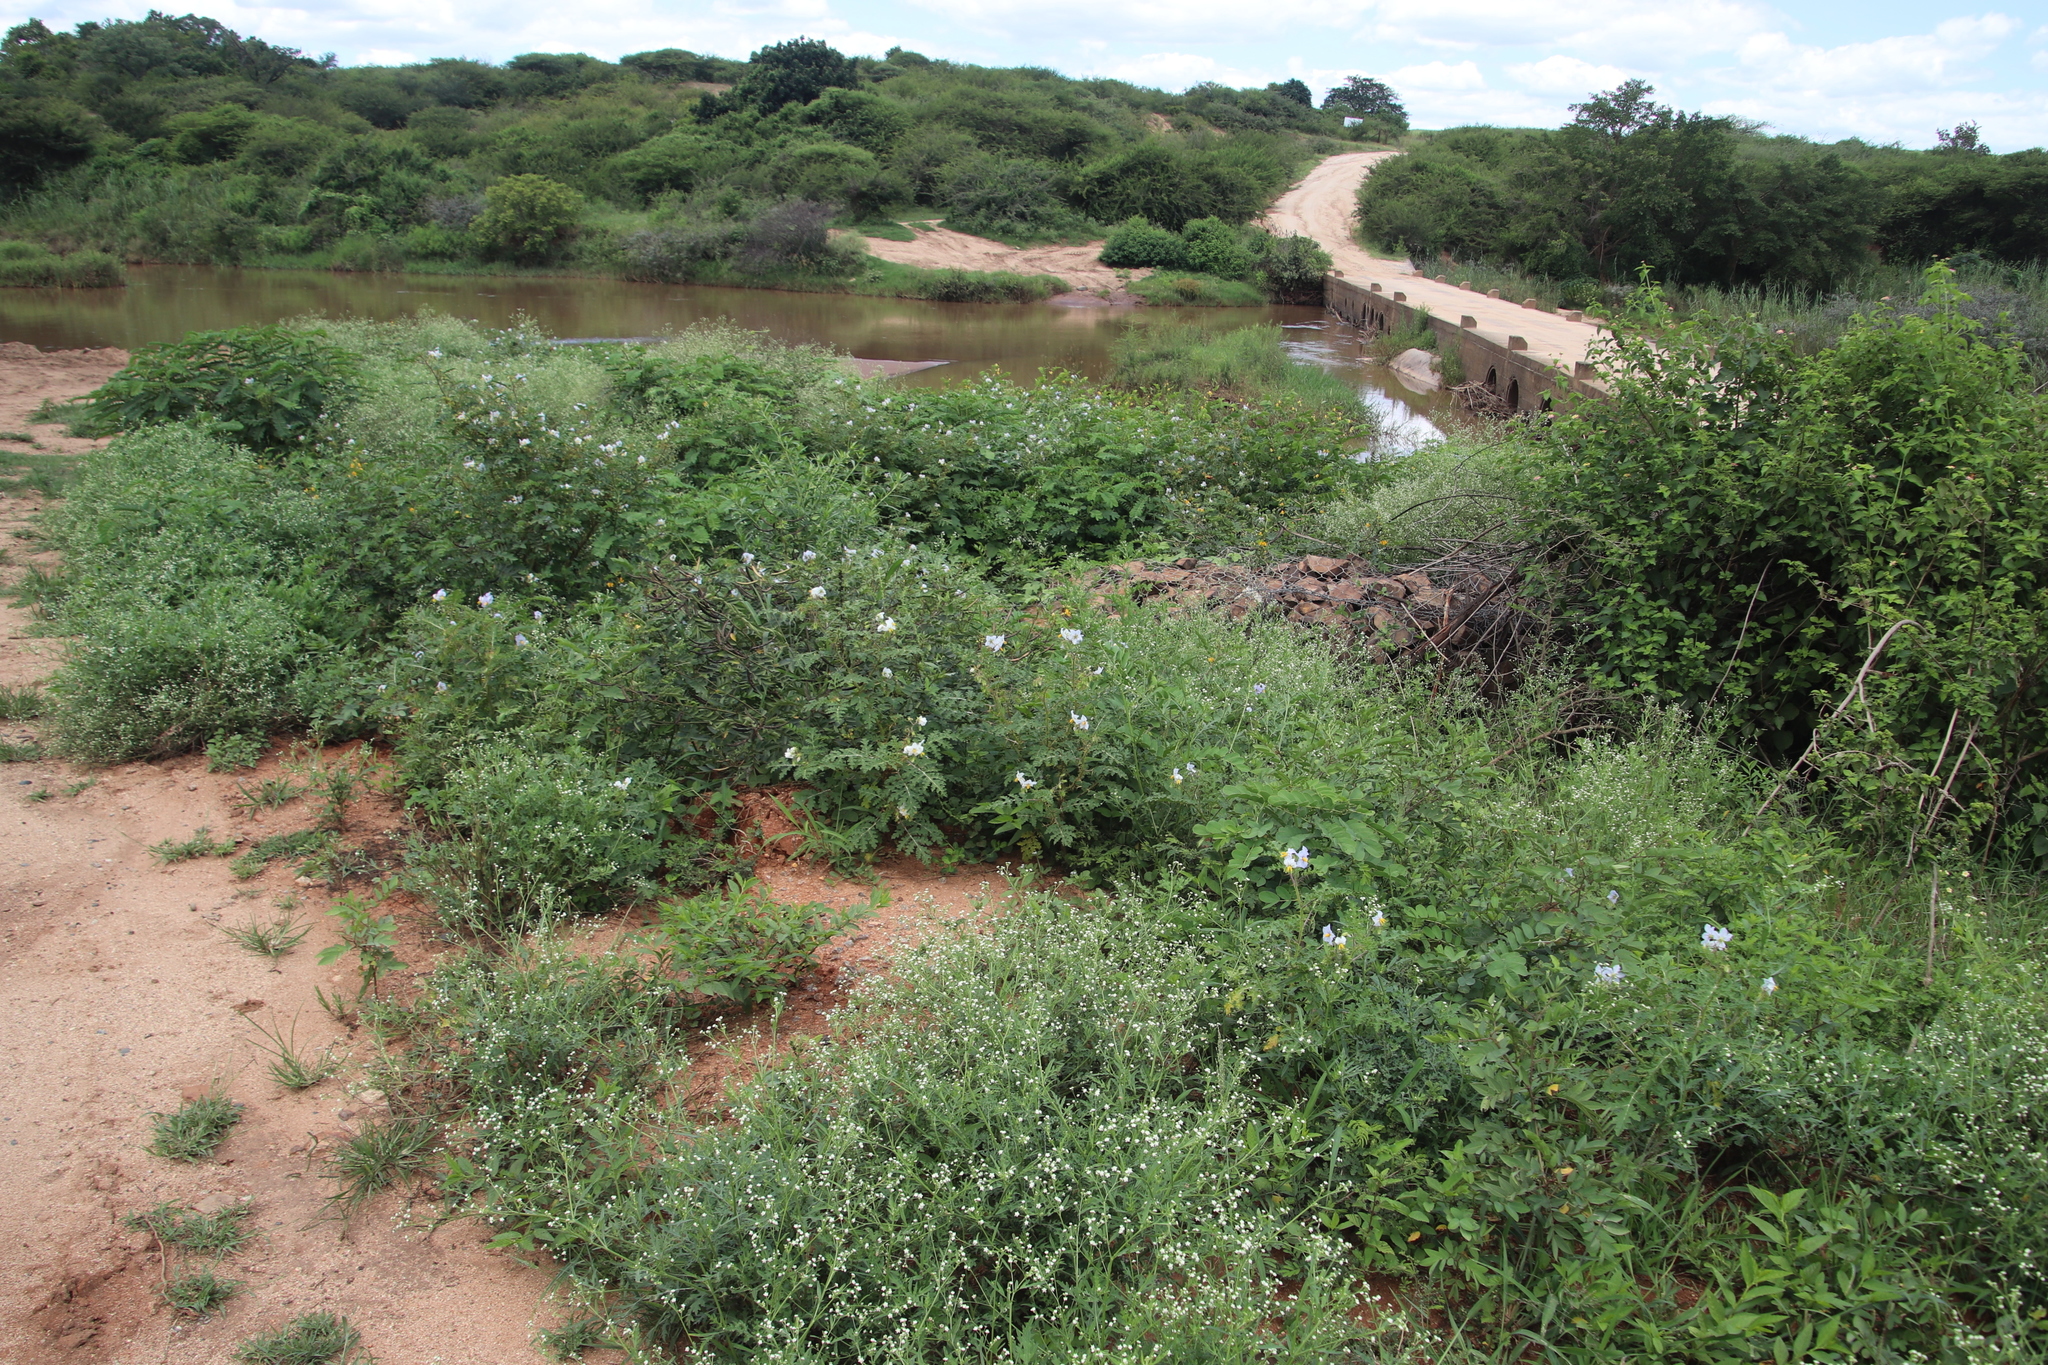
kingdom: Plantae
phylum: Tracheophyta
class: Magnoliopsida
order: Solanales
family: Solanaceae
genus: Solanum
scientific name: Solanum sisymbriifolium
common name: Red buffalo-bur
